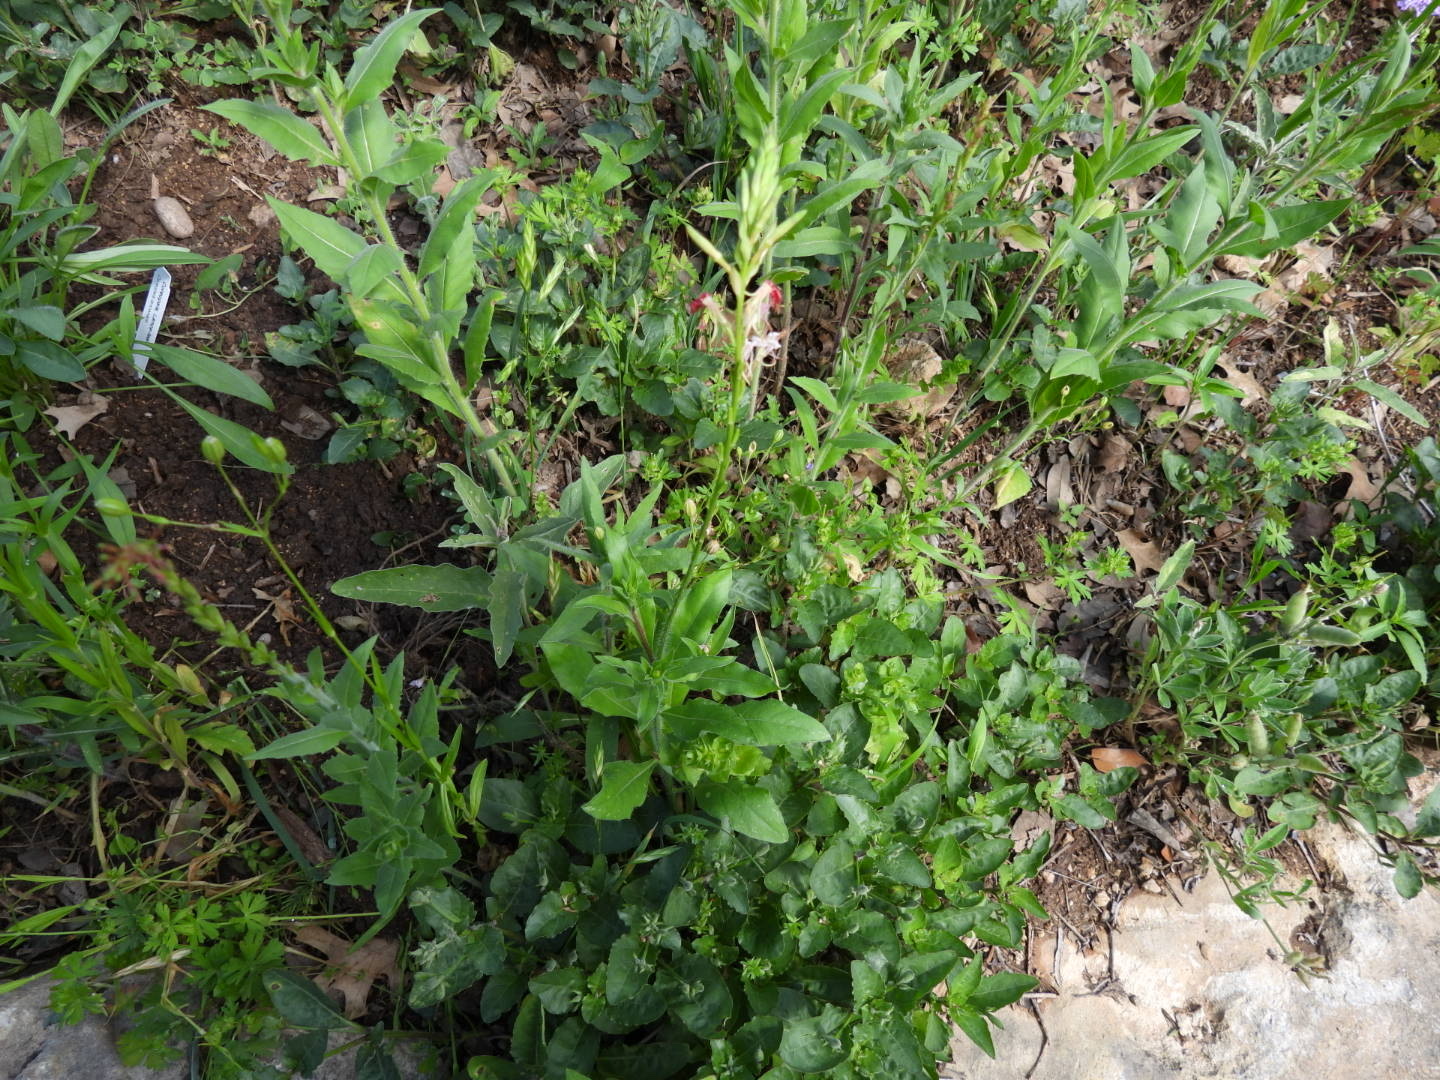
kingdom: Plantae
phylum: Tracheophyta
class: Magnoliopsida
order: Myrtales
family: Onagraceae
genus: Oenothera
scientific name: Oenothera suffulta
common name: Kisses
